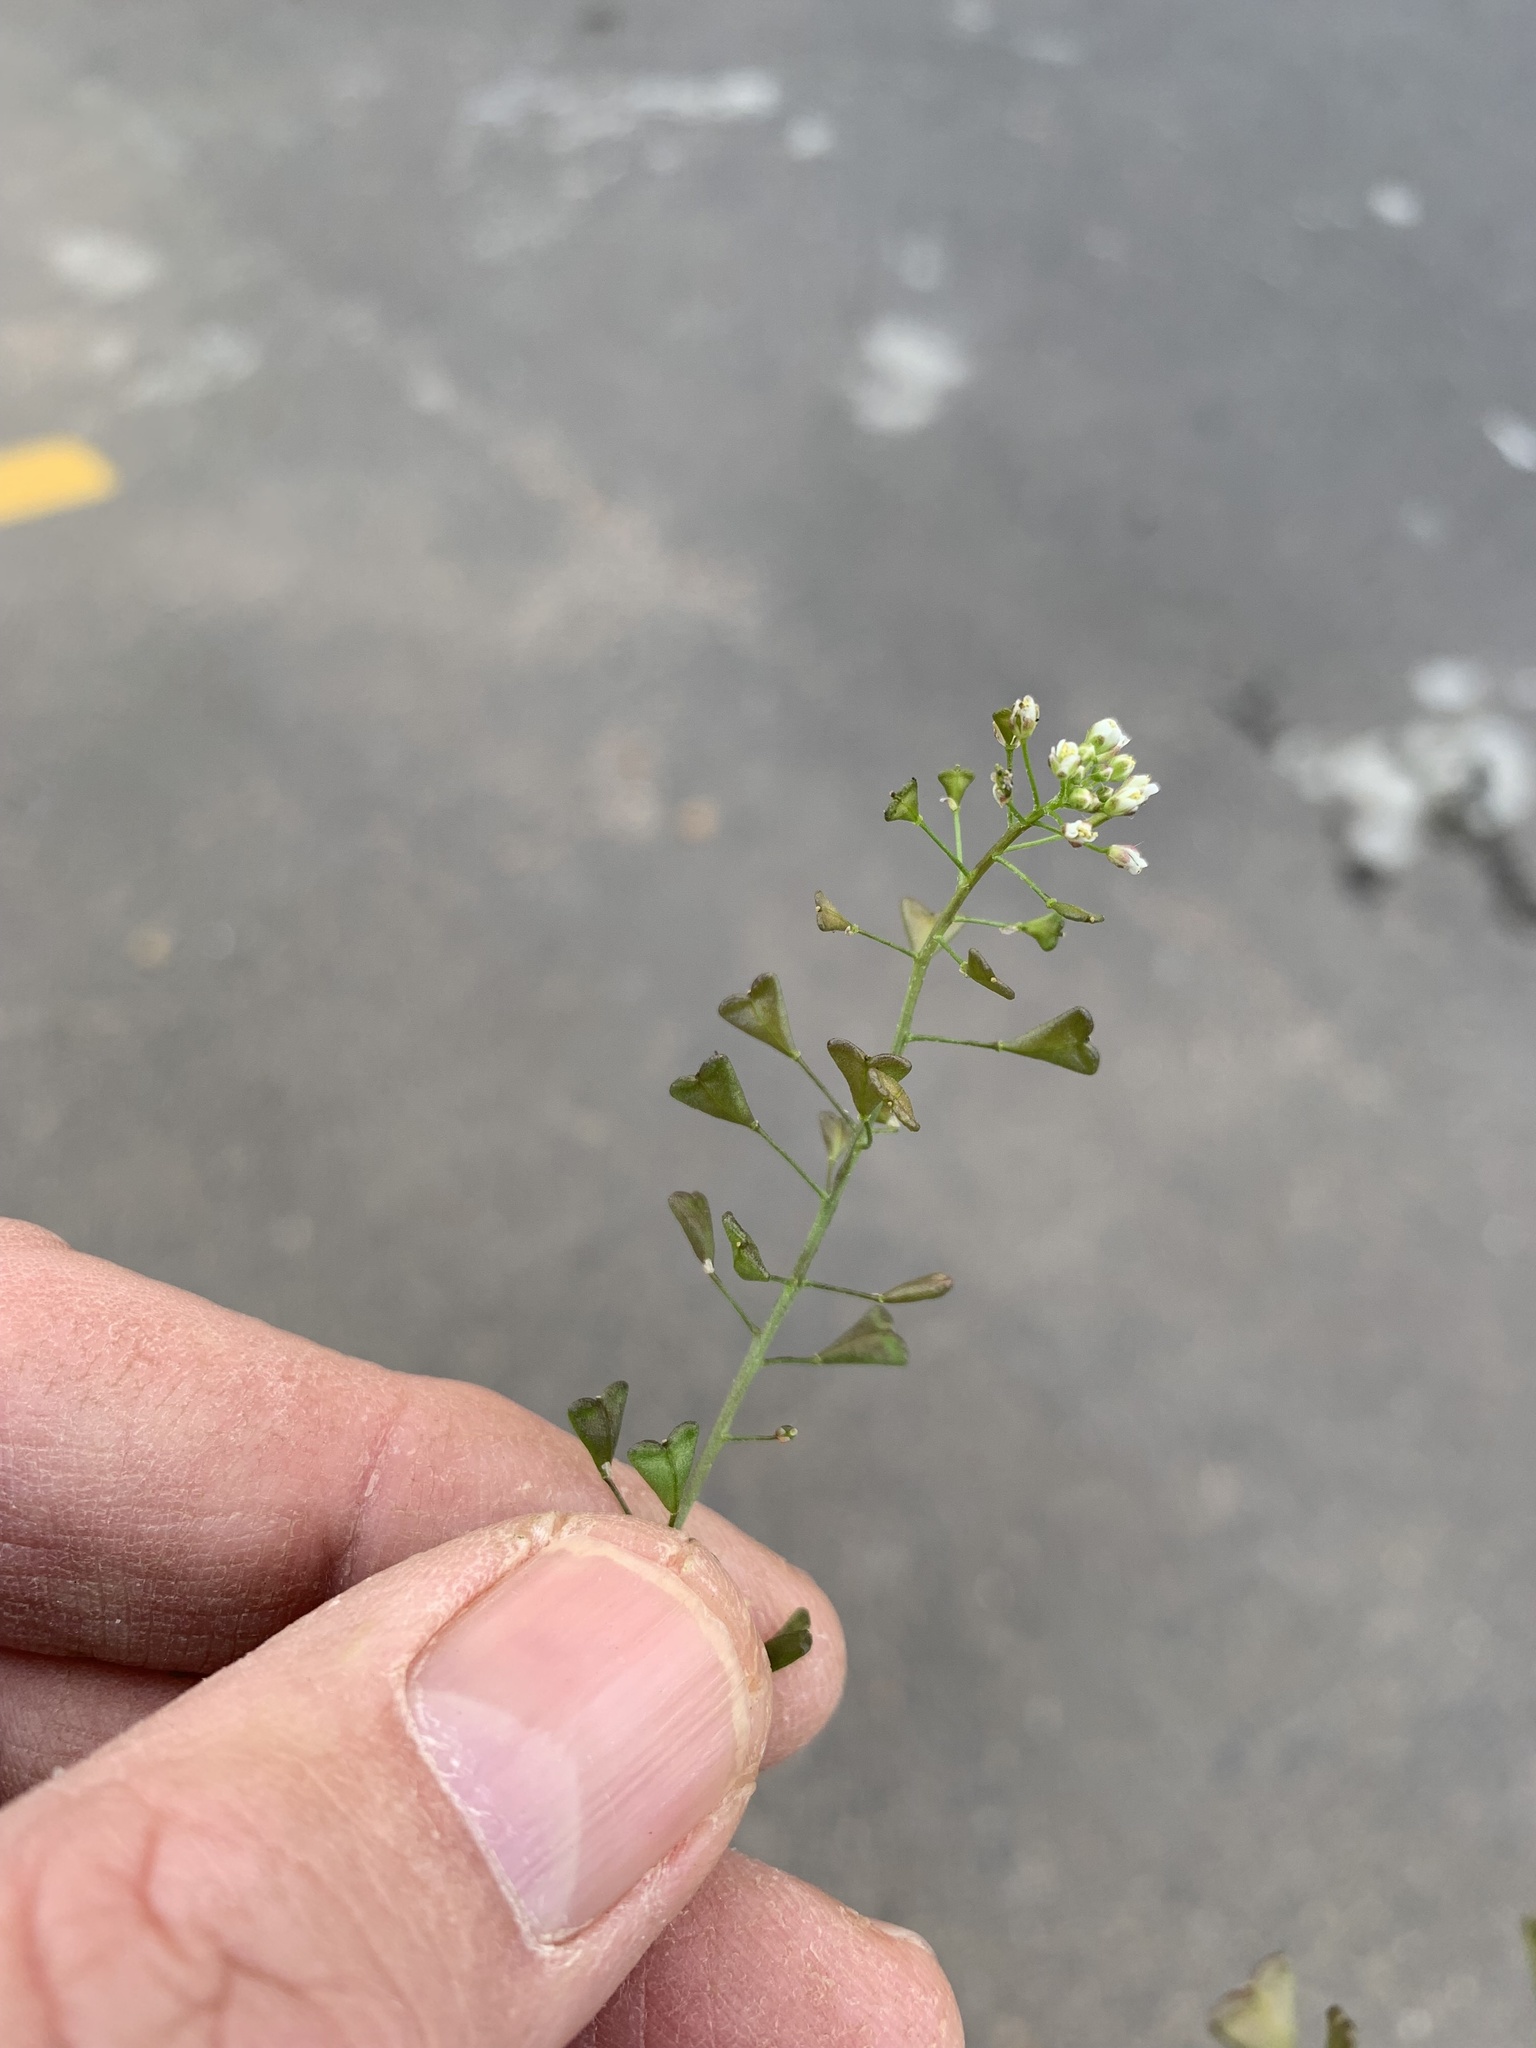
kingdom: Plantae
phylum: Tracheophyta
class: Magnoliopsida
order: Brassicales
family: Brassicaceae
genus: Capsella
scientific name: Capsella bursa-pastoris
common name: Shepherd's purse
